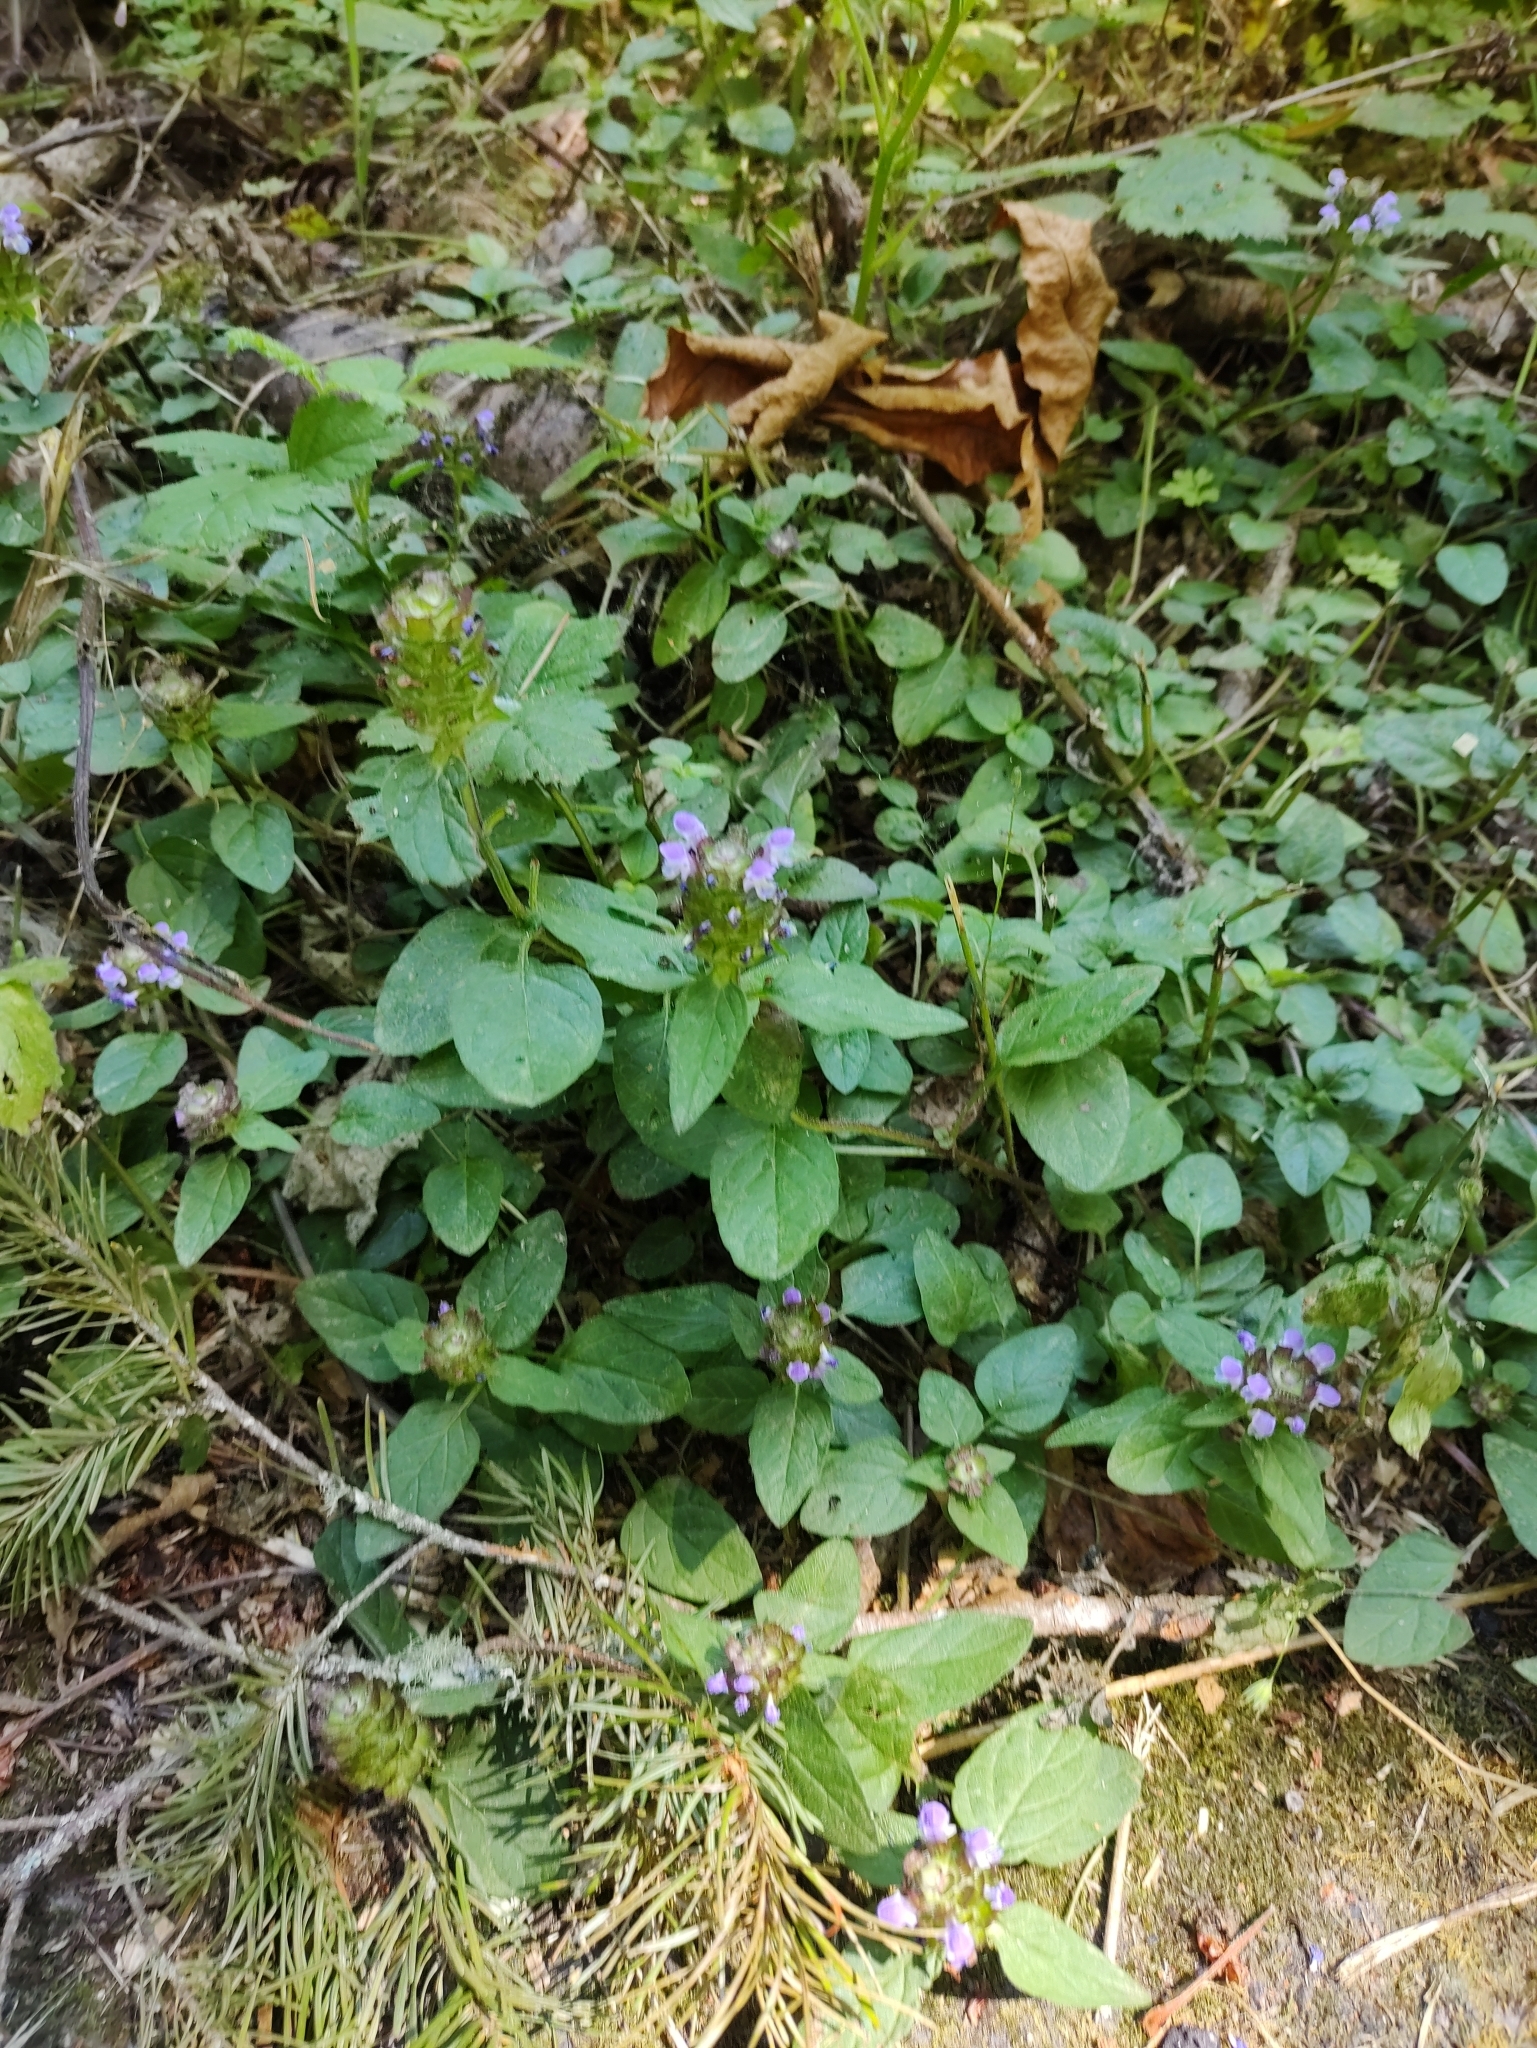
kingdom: Plantae
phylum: Tracheophyta
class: Magnoliopsida
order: Lamiales
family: Lamiaceae
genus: Prunella
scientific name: Prunella vulgaris
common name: Heal-all
